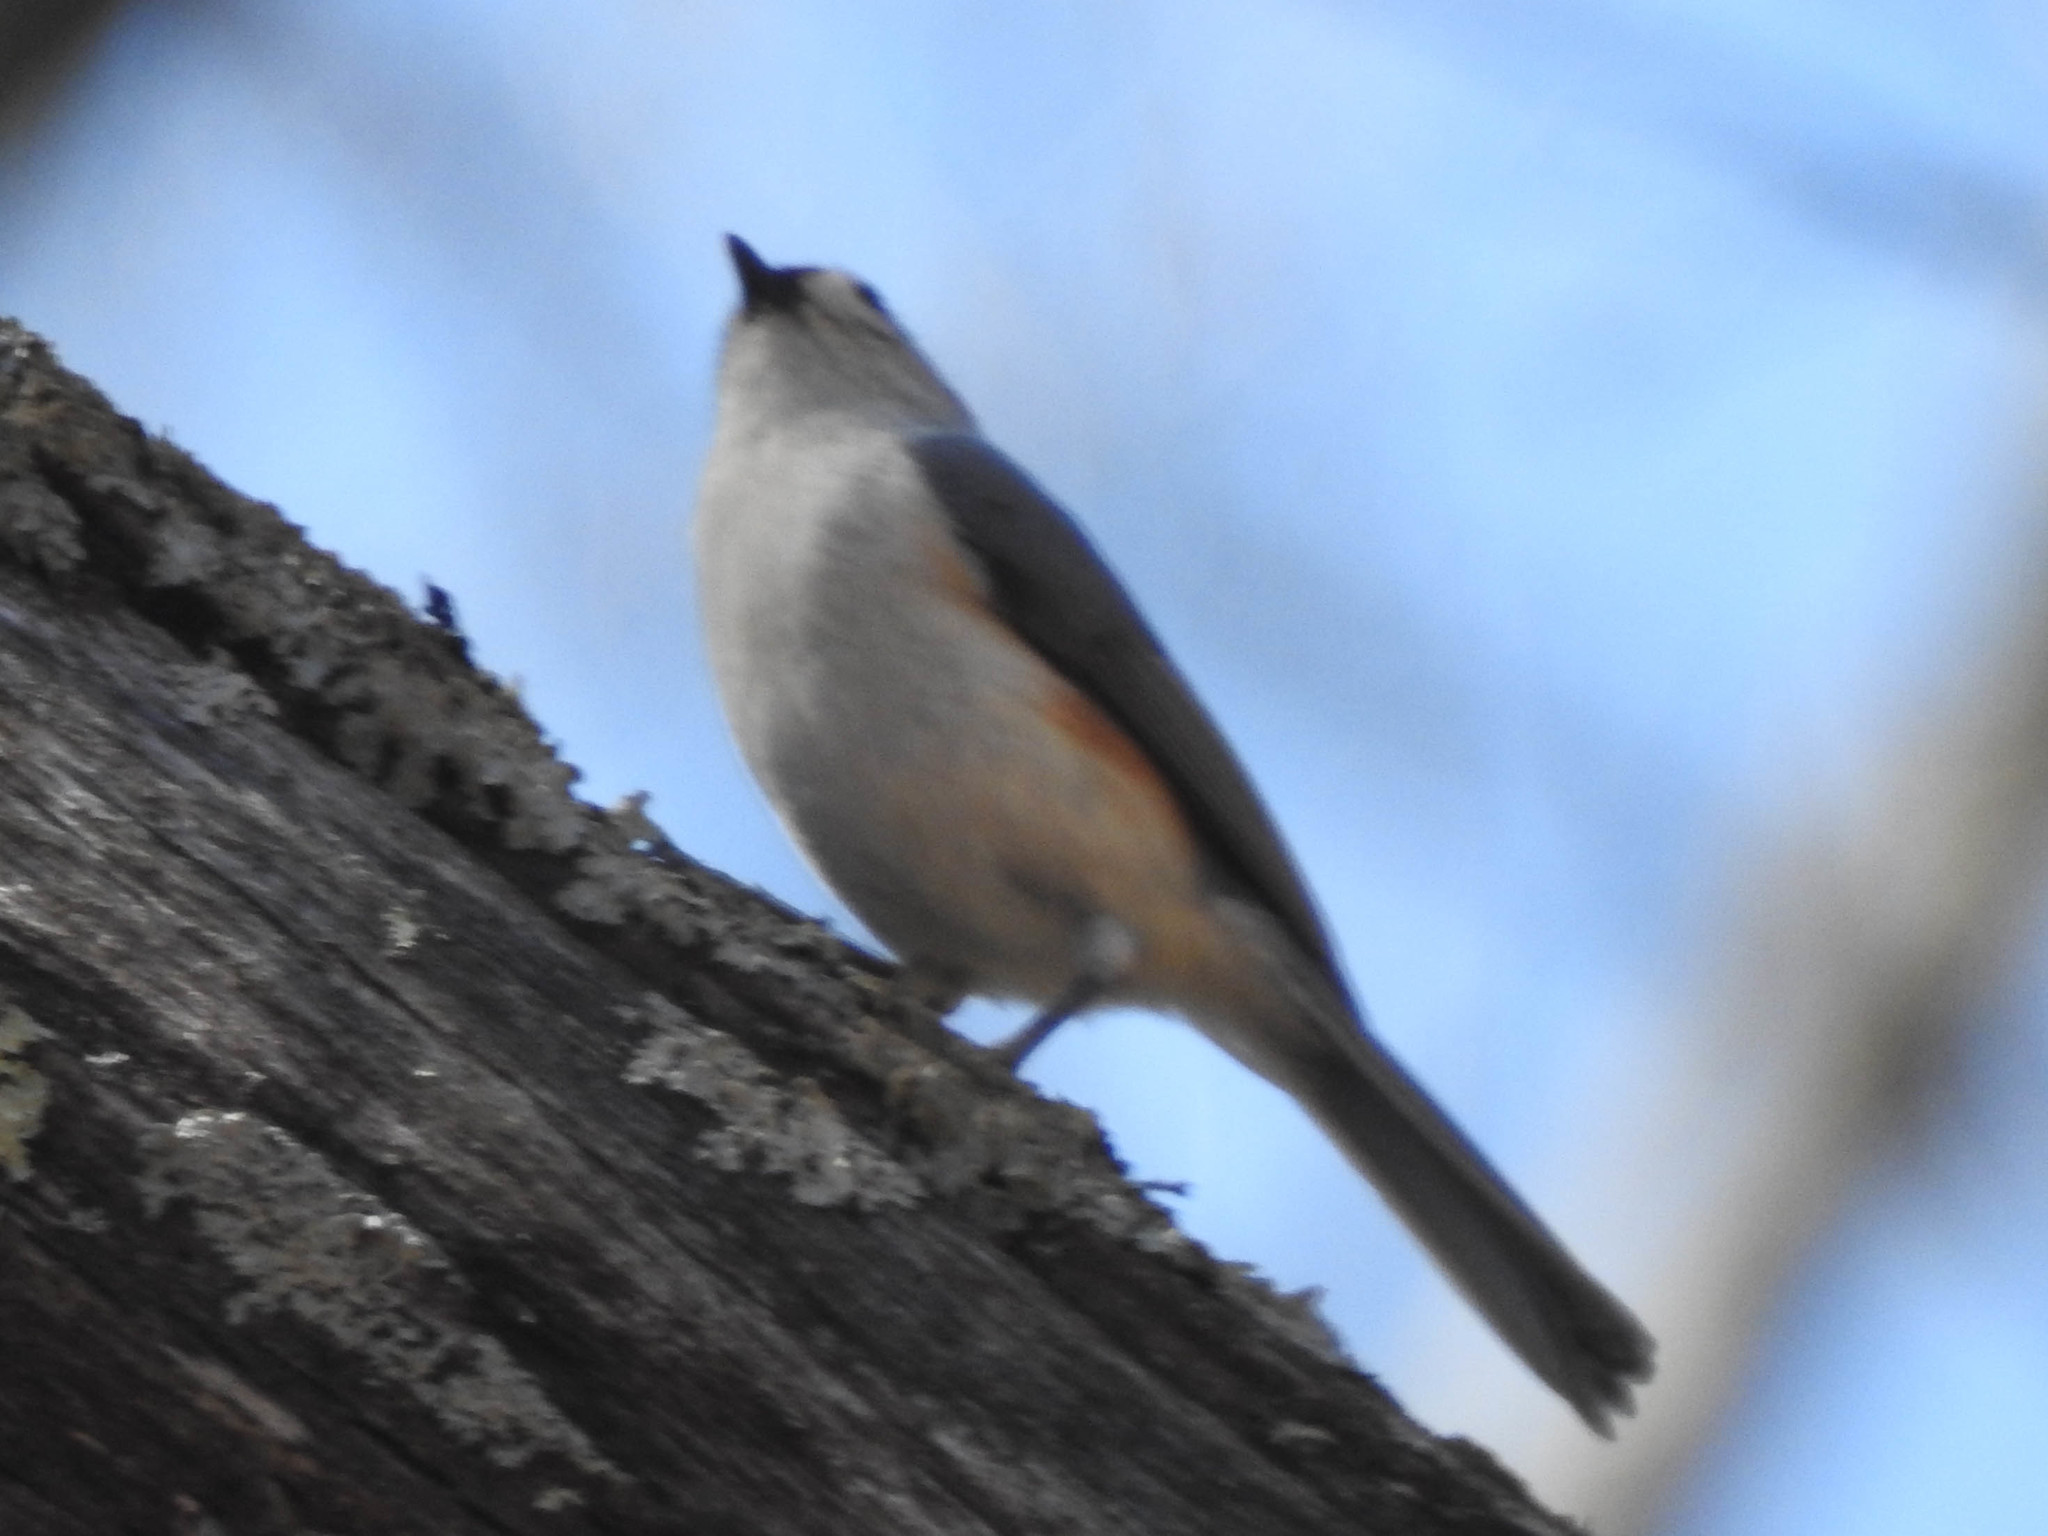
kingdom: Animalia
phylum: Chordata
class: Aves
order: Passeriformes
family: Paridae
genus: Baeolophus
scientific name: Baeolophus bicolor
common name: Tufted titmouse
